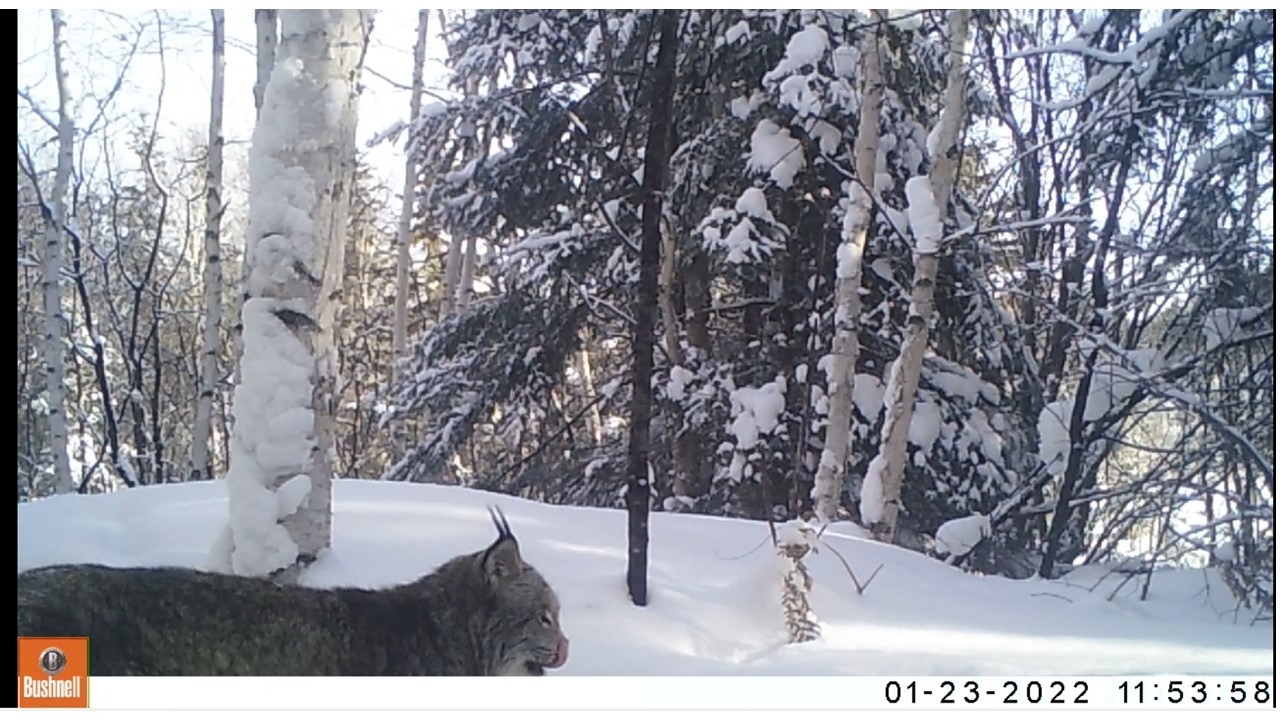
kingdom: Animalia
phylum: Chordata
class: Mammalia
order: Carnivora
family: Felidae
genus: Lynx
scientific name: Lynx canadensis
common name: Canadian lynx
